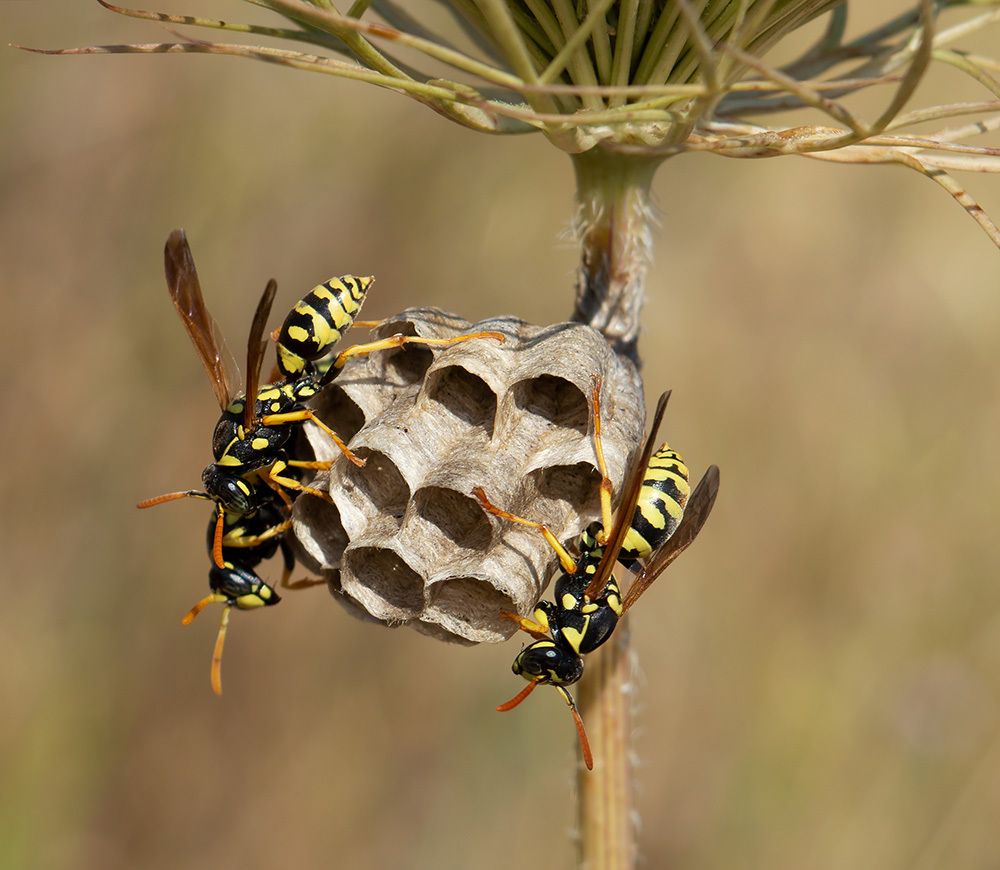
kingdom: Animalia
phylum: Arthropoda
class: Insecta
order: Hymenoptera
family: Eumenidae
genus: Polistes
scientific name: Polistes gallicus
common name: Paper wasp
